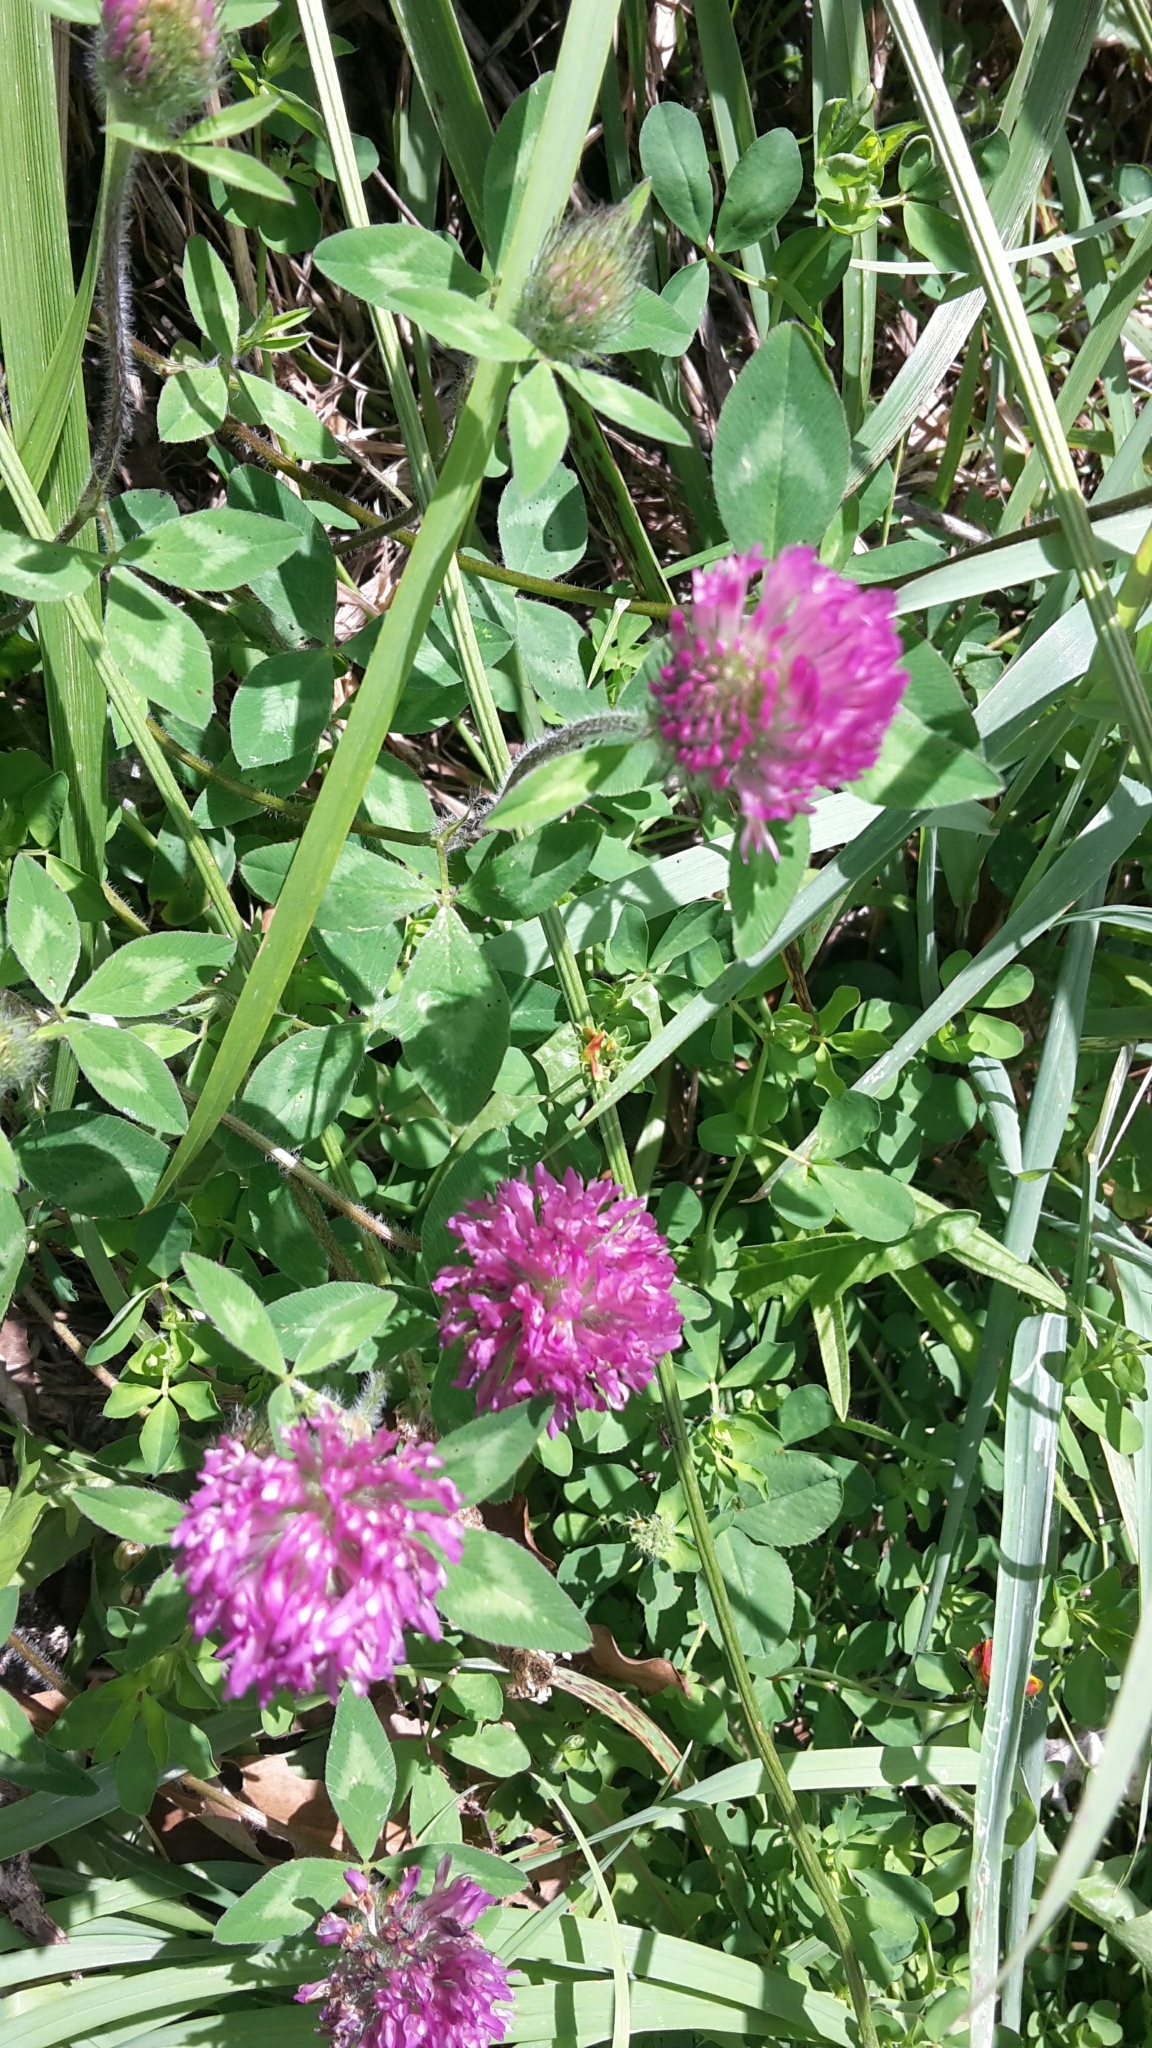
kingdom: Plantae
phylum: Tracheophyta
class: Magnoliopsida
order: Fabales
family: Fabaceae
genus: Trifolium
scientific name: Trifolium pratense
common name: Red clover
